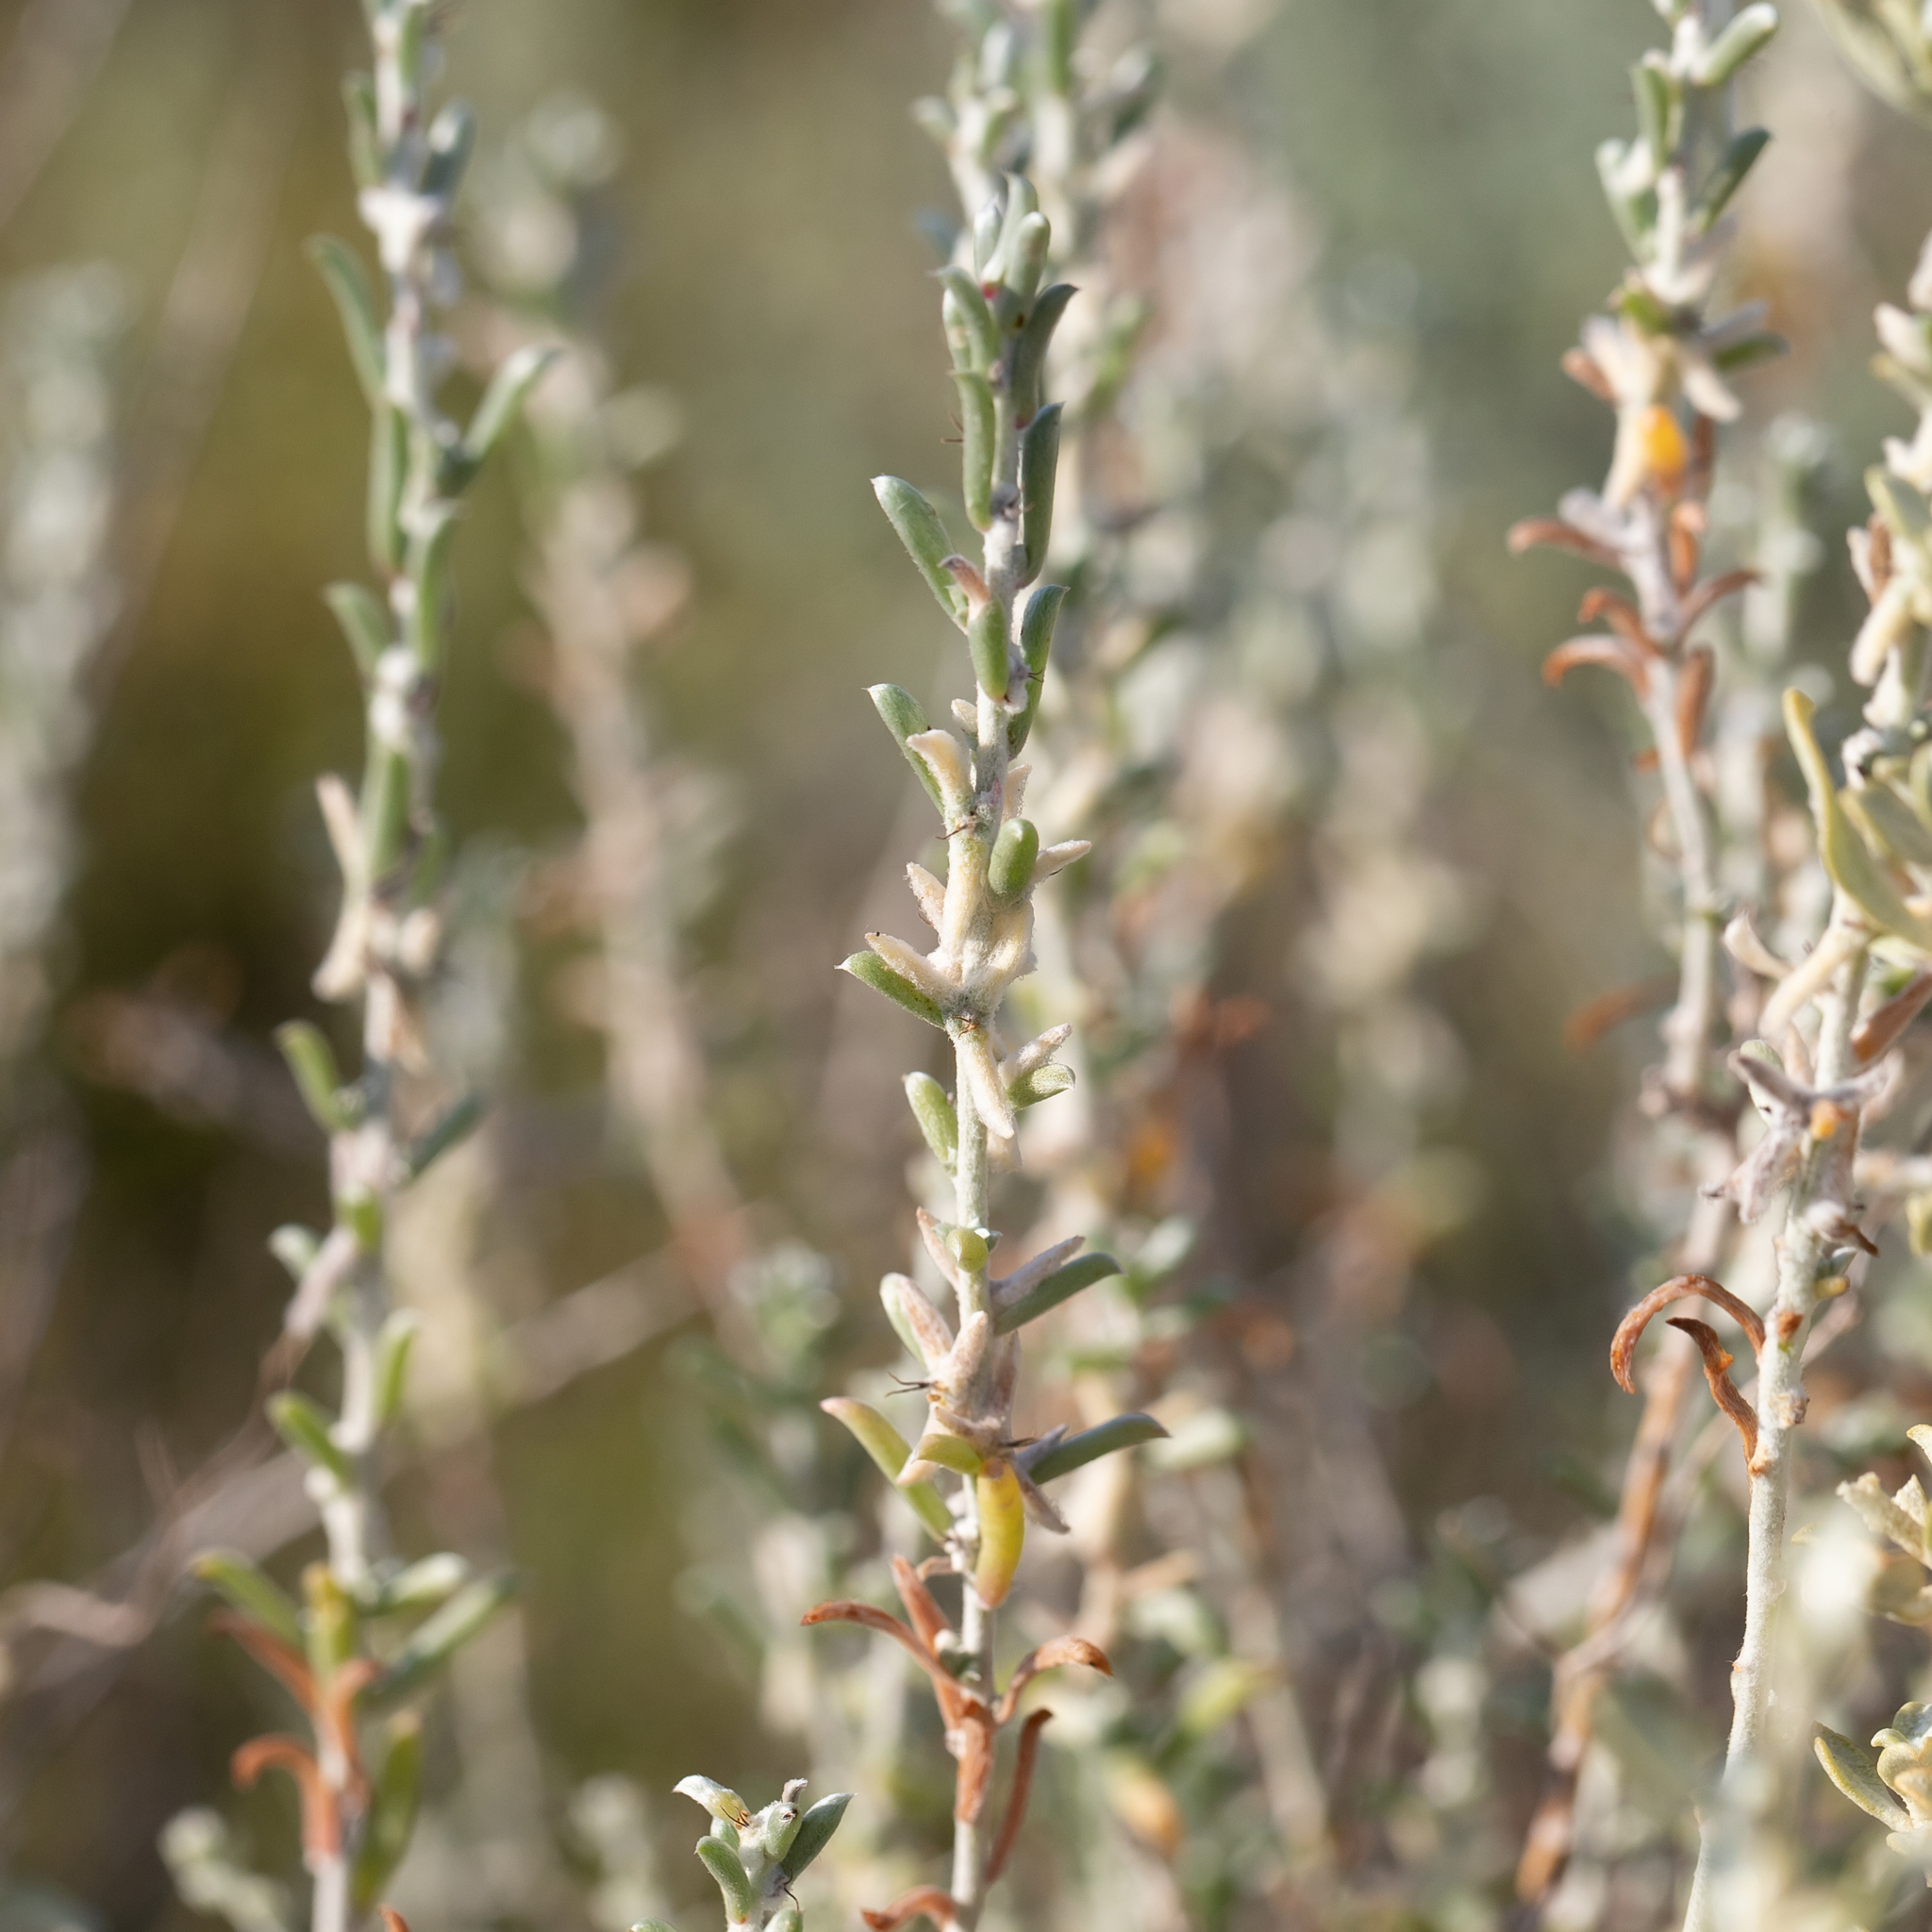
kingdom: Plantae
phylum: Tracheophyta
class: Magnoliopsida
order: Caryophyllales
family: Amaranthaceae
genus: Malacocera
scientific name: Malacocera tricornis
